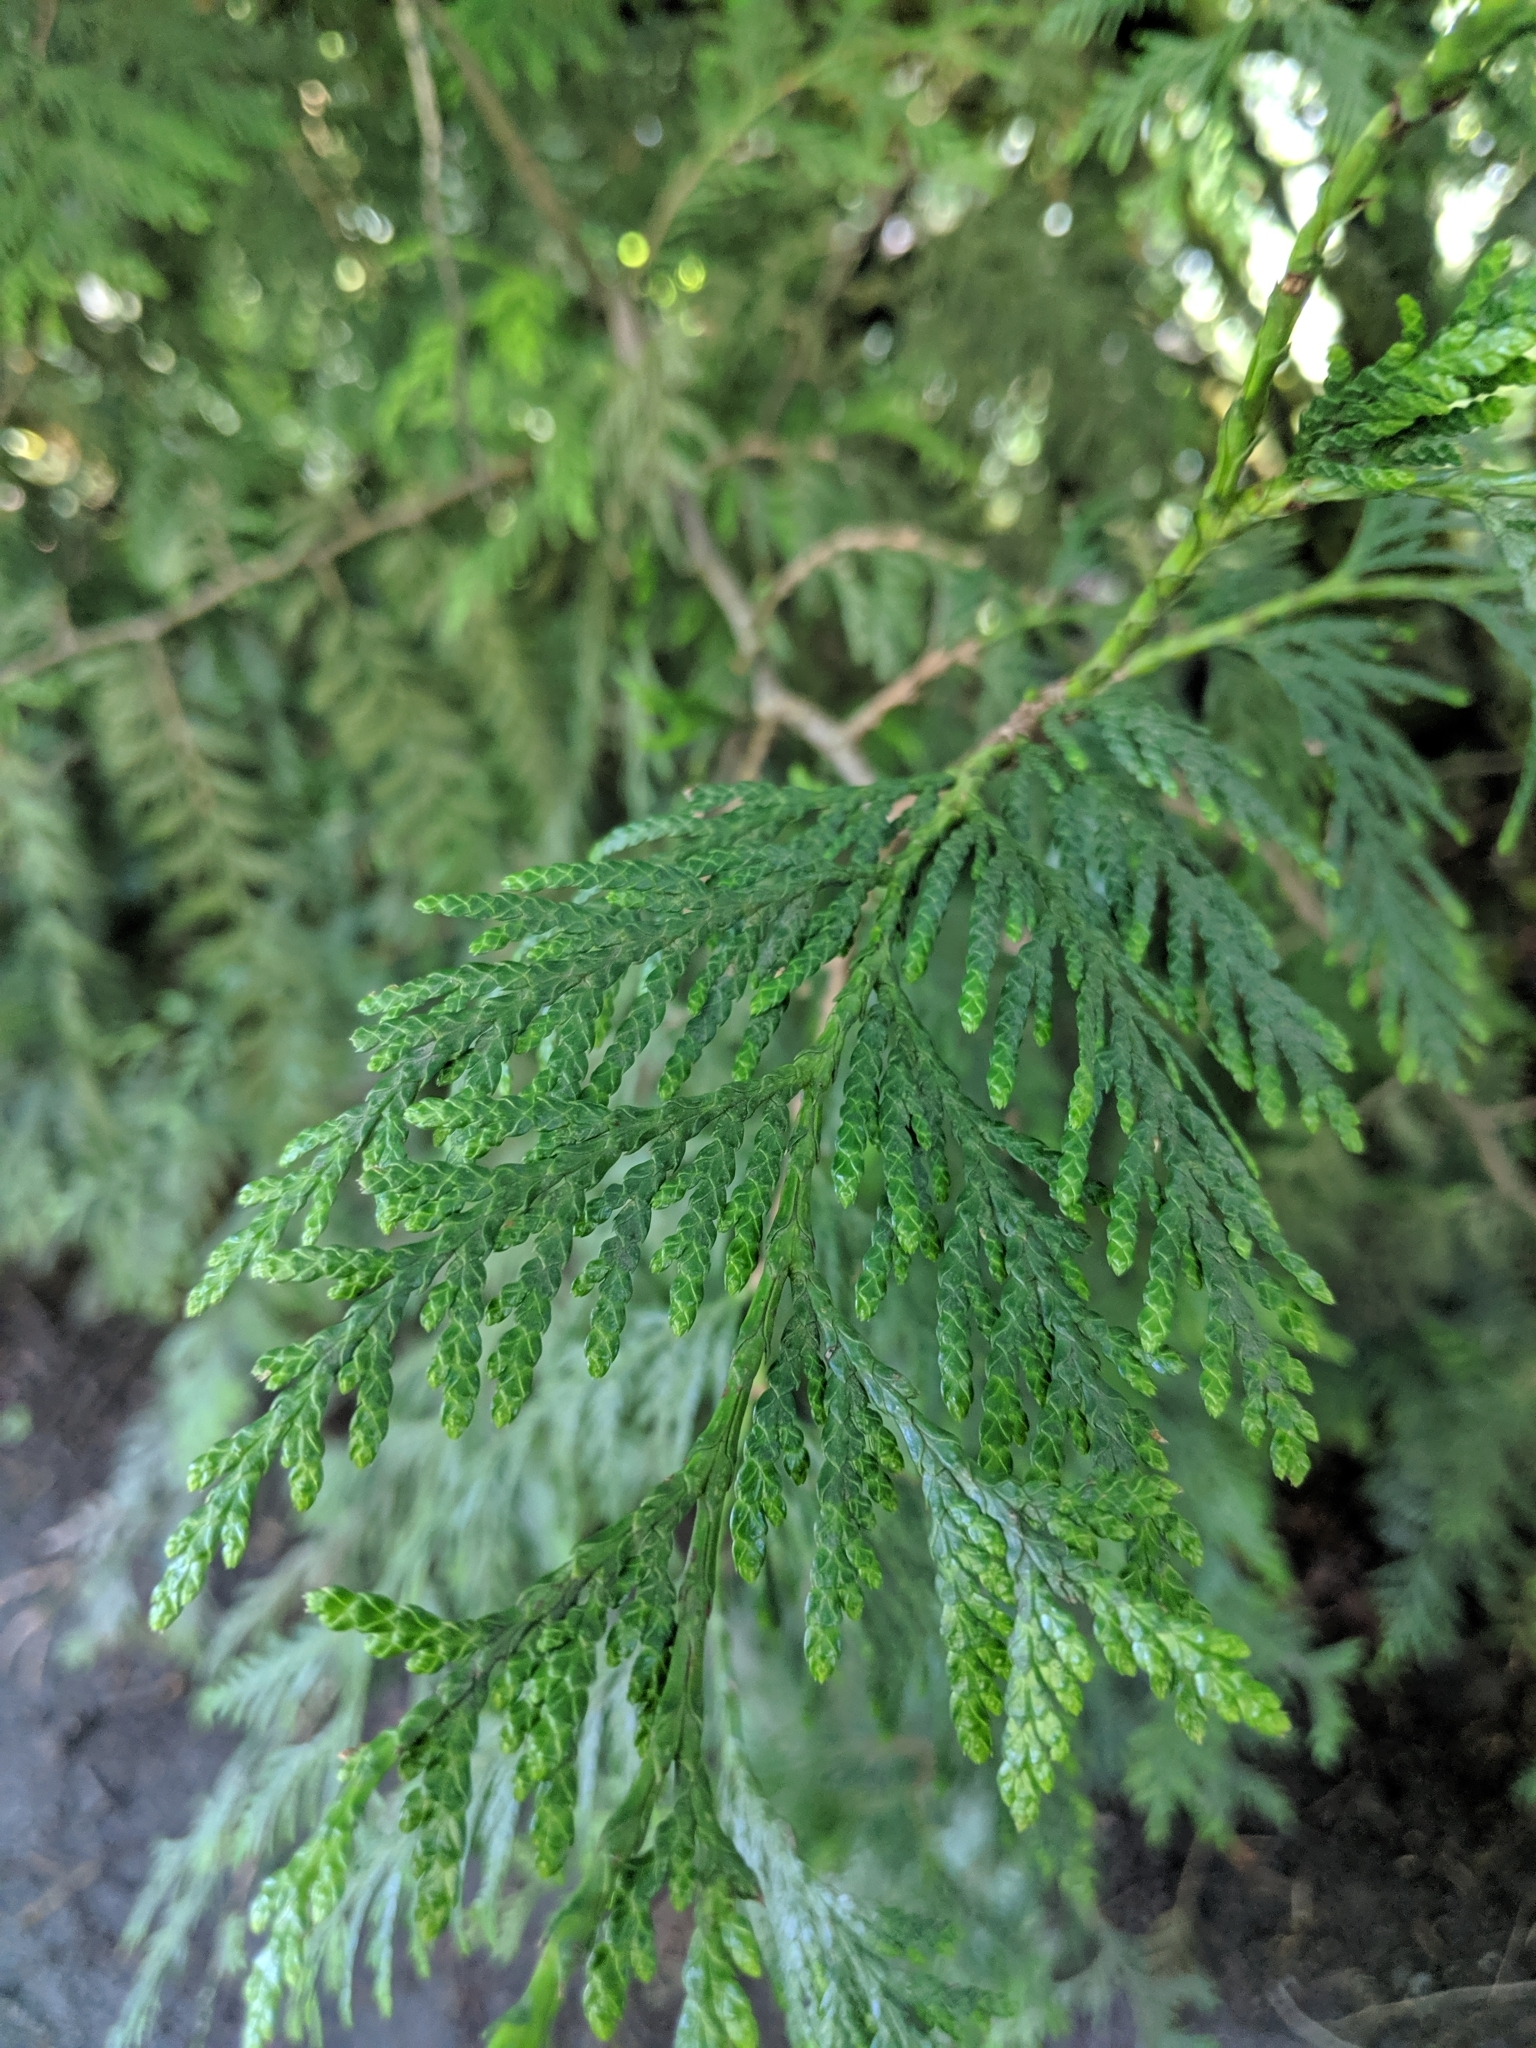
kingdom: Plantae
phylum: Tracheophyta
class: Pinopsida
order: Pinales
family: Cupressaceae
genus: Thuja
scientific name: Thuja plicata
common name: Western red-cedar
